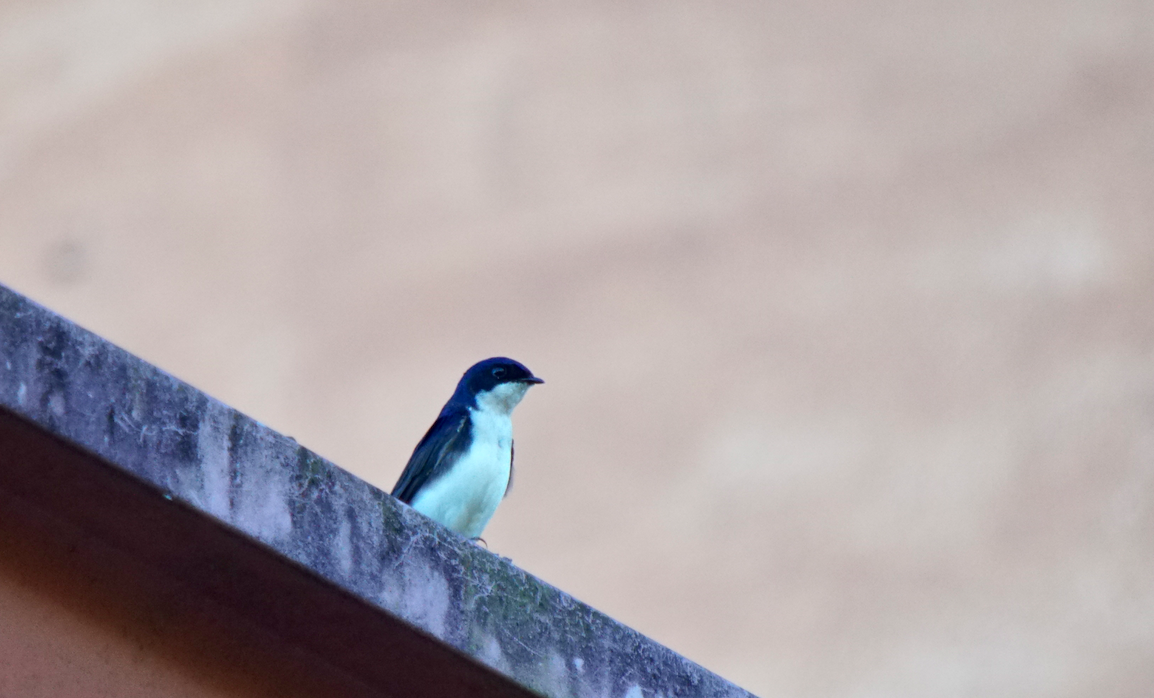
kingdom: Animalia
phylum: Chordata
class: Aves
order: Passeriformes
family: Hirundinidae
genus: Notiochelidon
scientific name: Notiochelidon cyanoleuca
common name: Blue-and-white swallow
